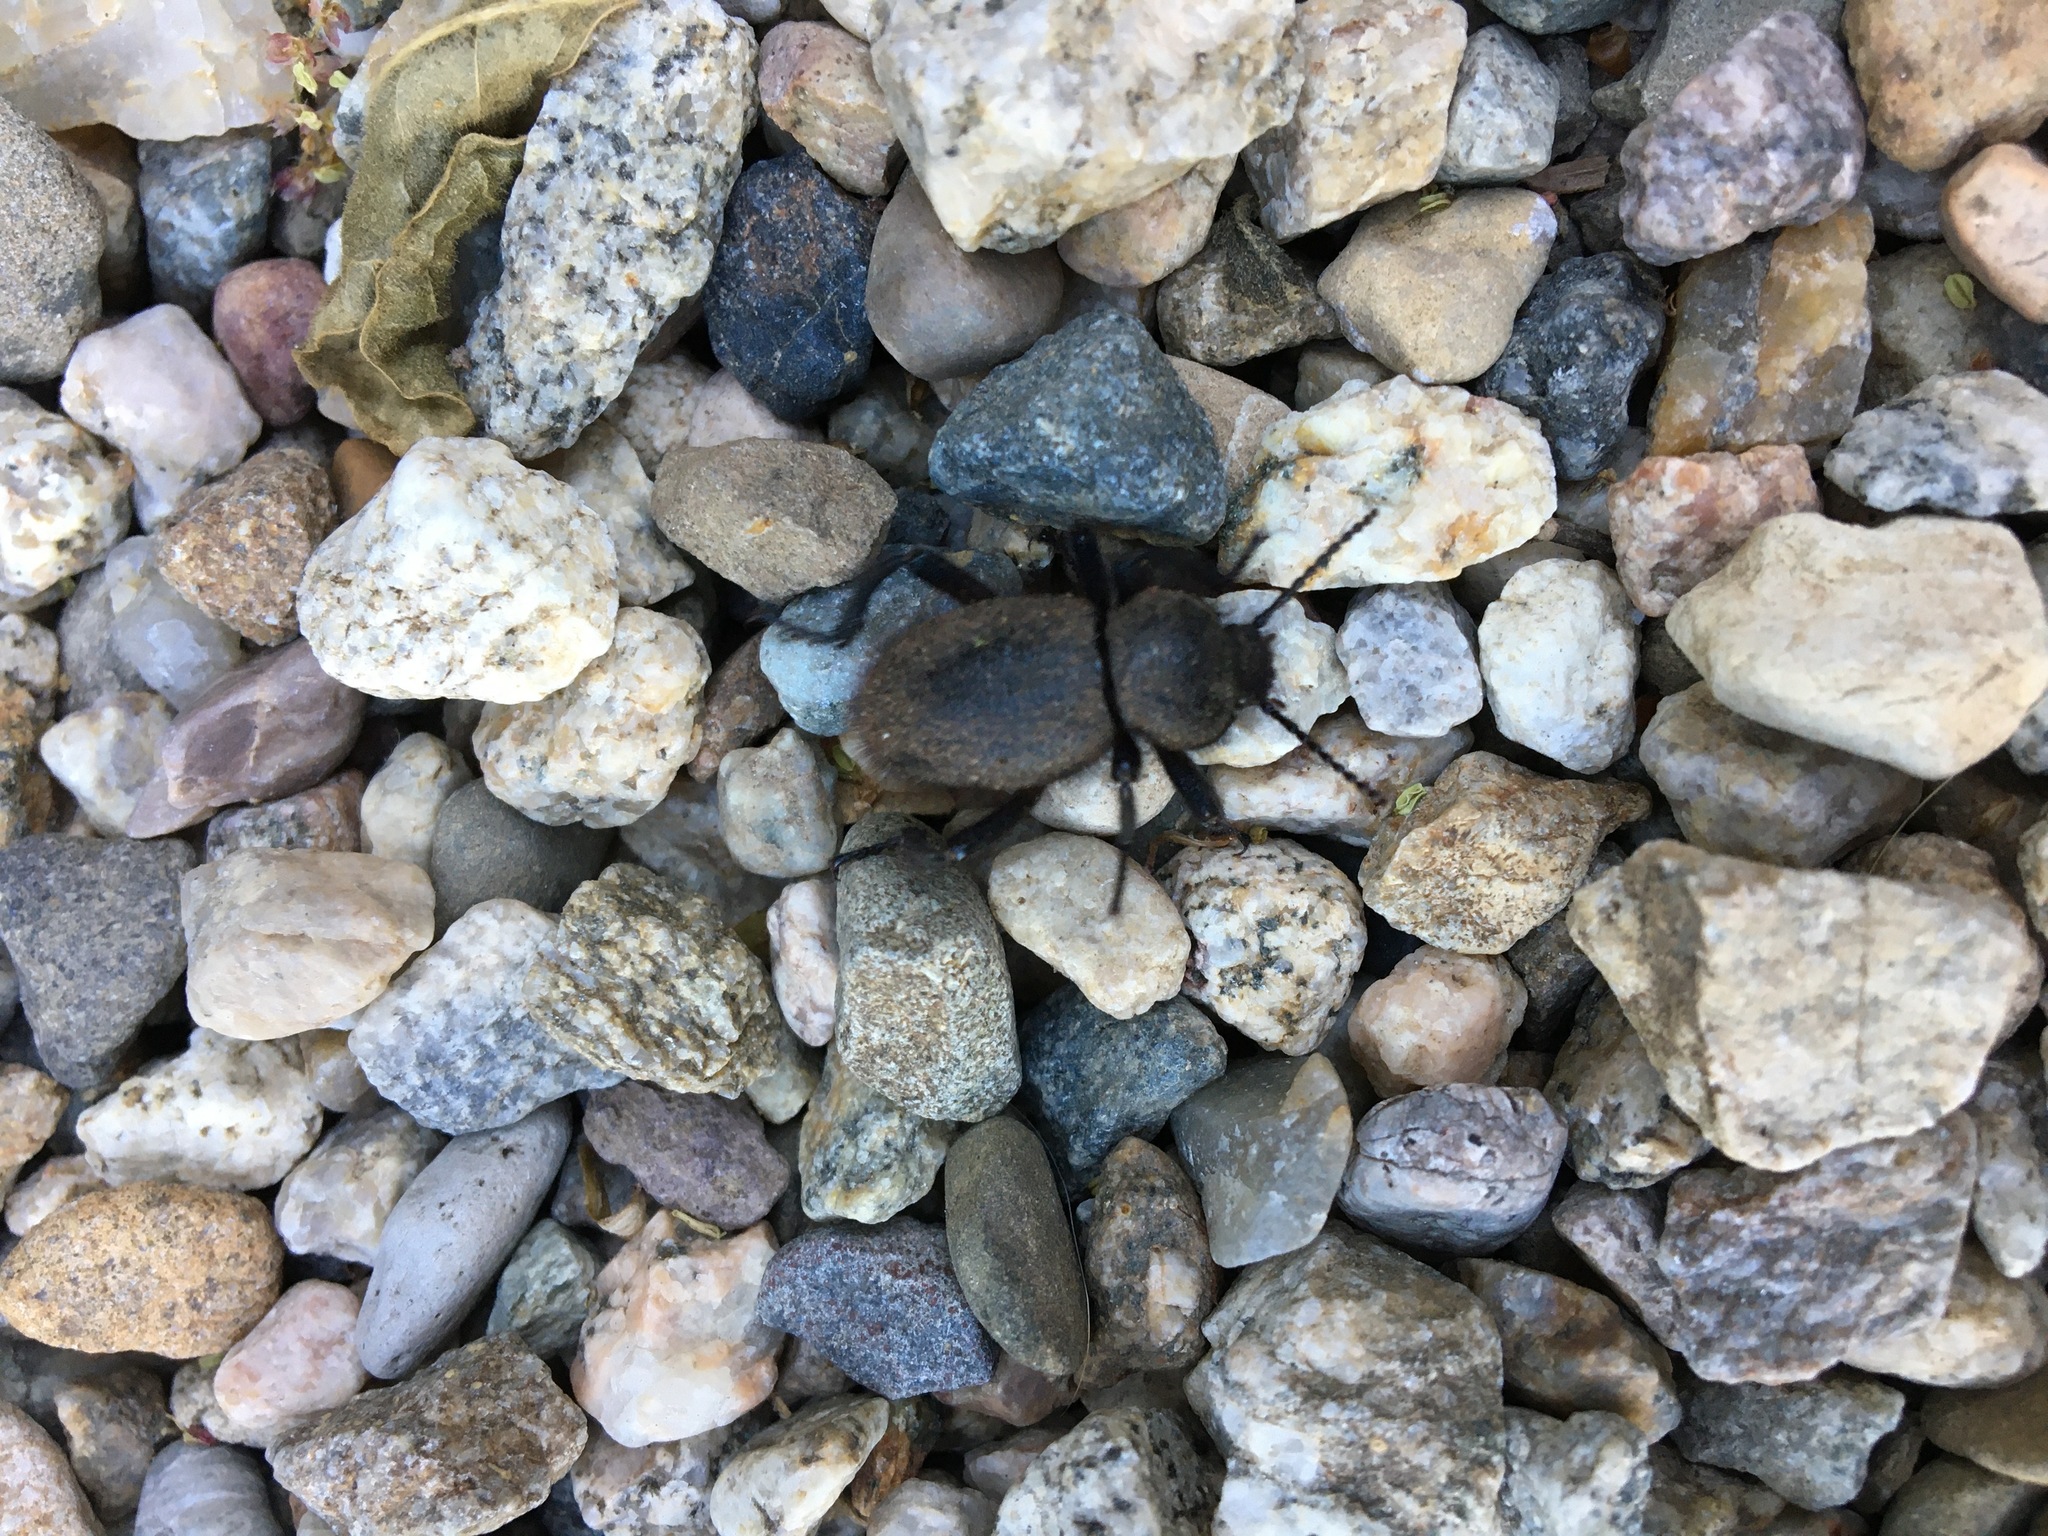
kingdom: Animalia
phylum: Arthropoda
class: Insecta
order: Coleoptera
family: Tenebrionidae
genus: Eleodes
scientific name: Eleodes osculans
